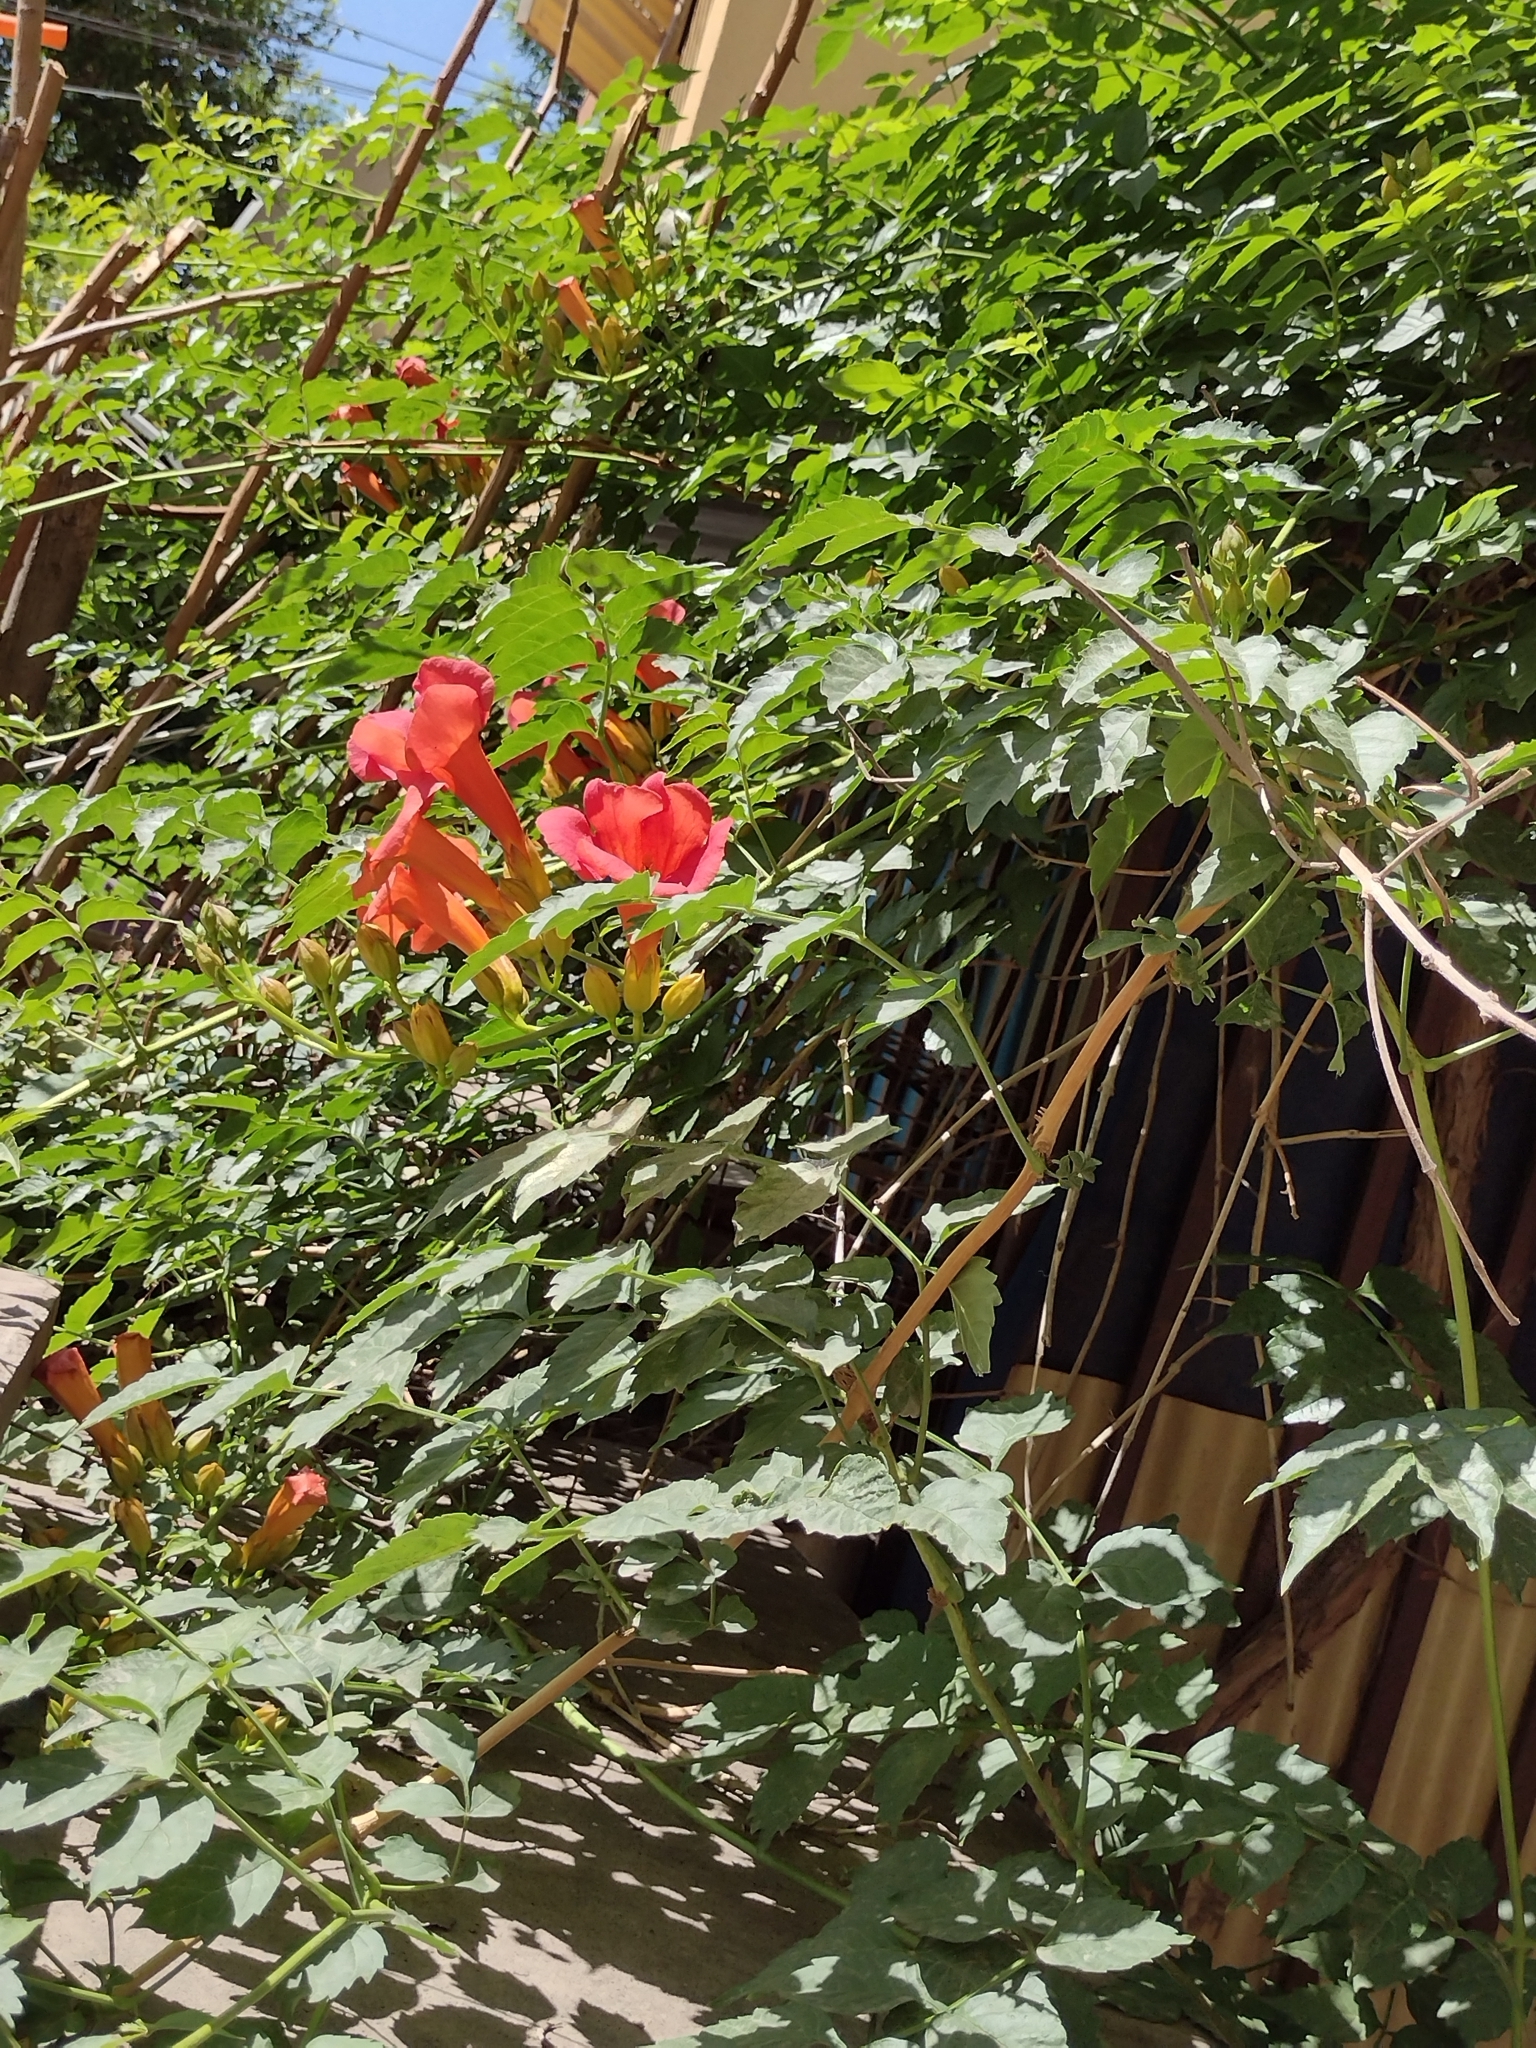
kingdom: Plantae
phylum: Tracheophyta
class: Magnoliopsida
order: Lamiales
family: Bignoniaceae
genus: Campsis
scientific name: Campsis radicans
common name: Trumpet-creeper
